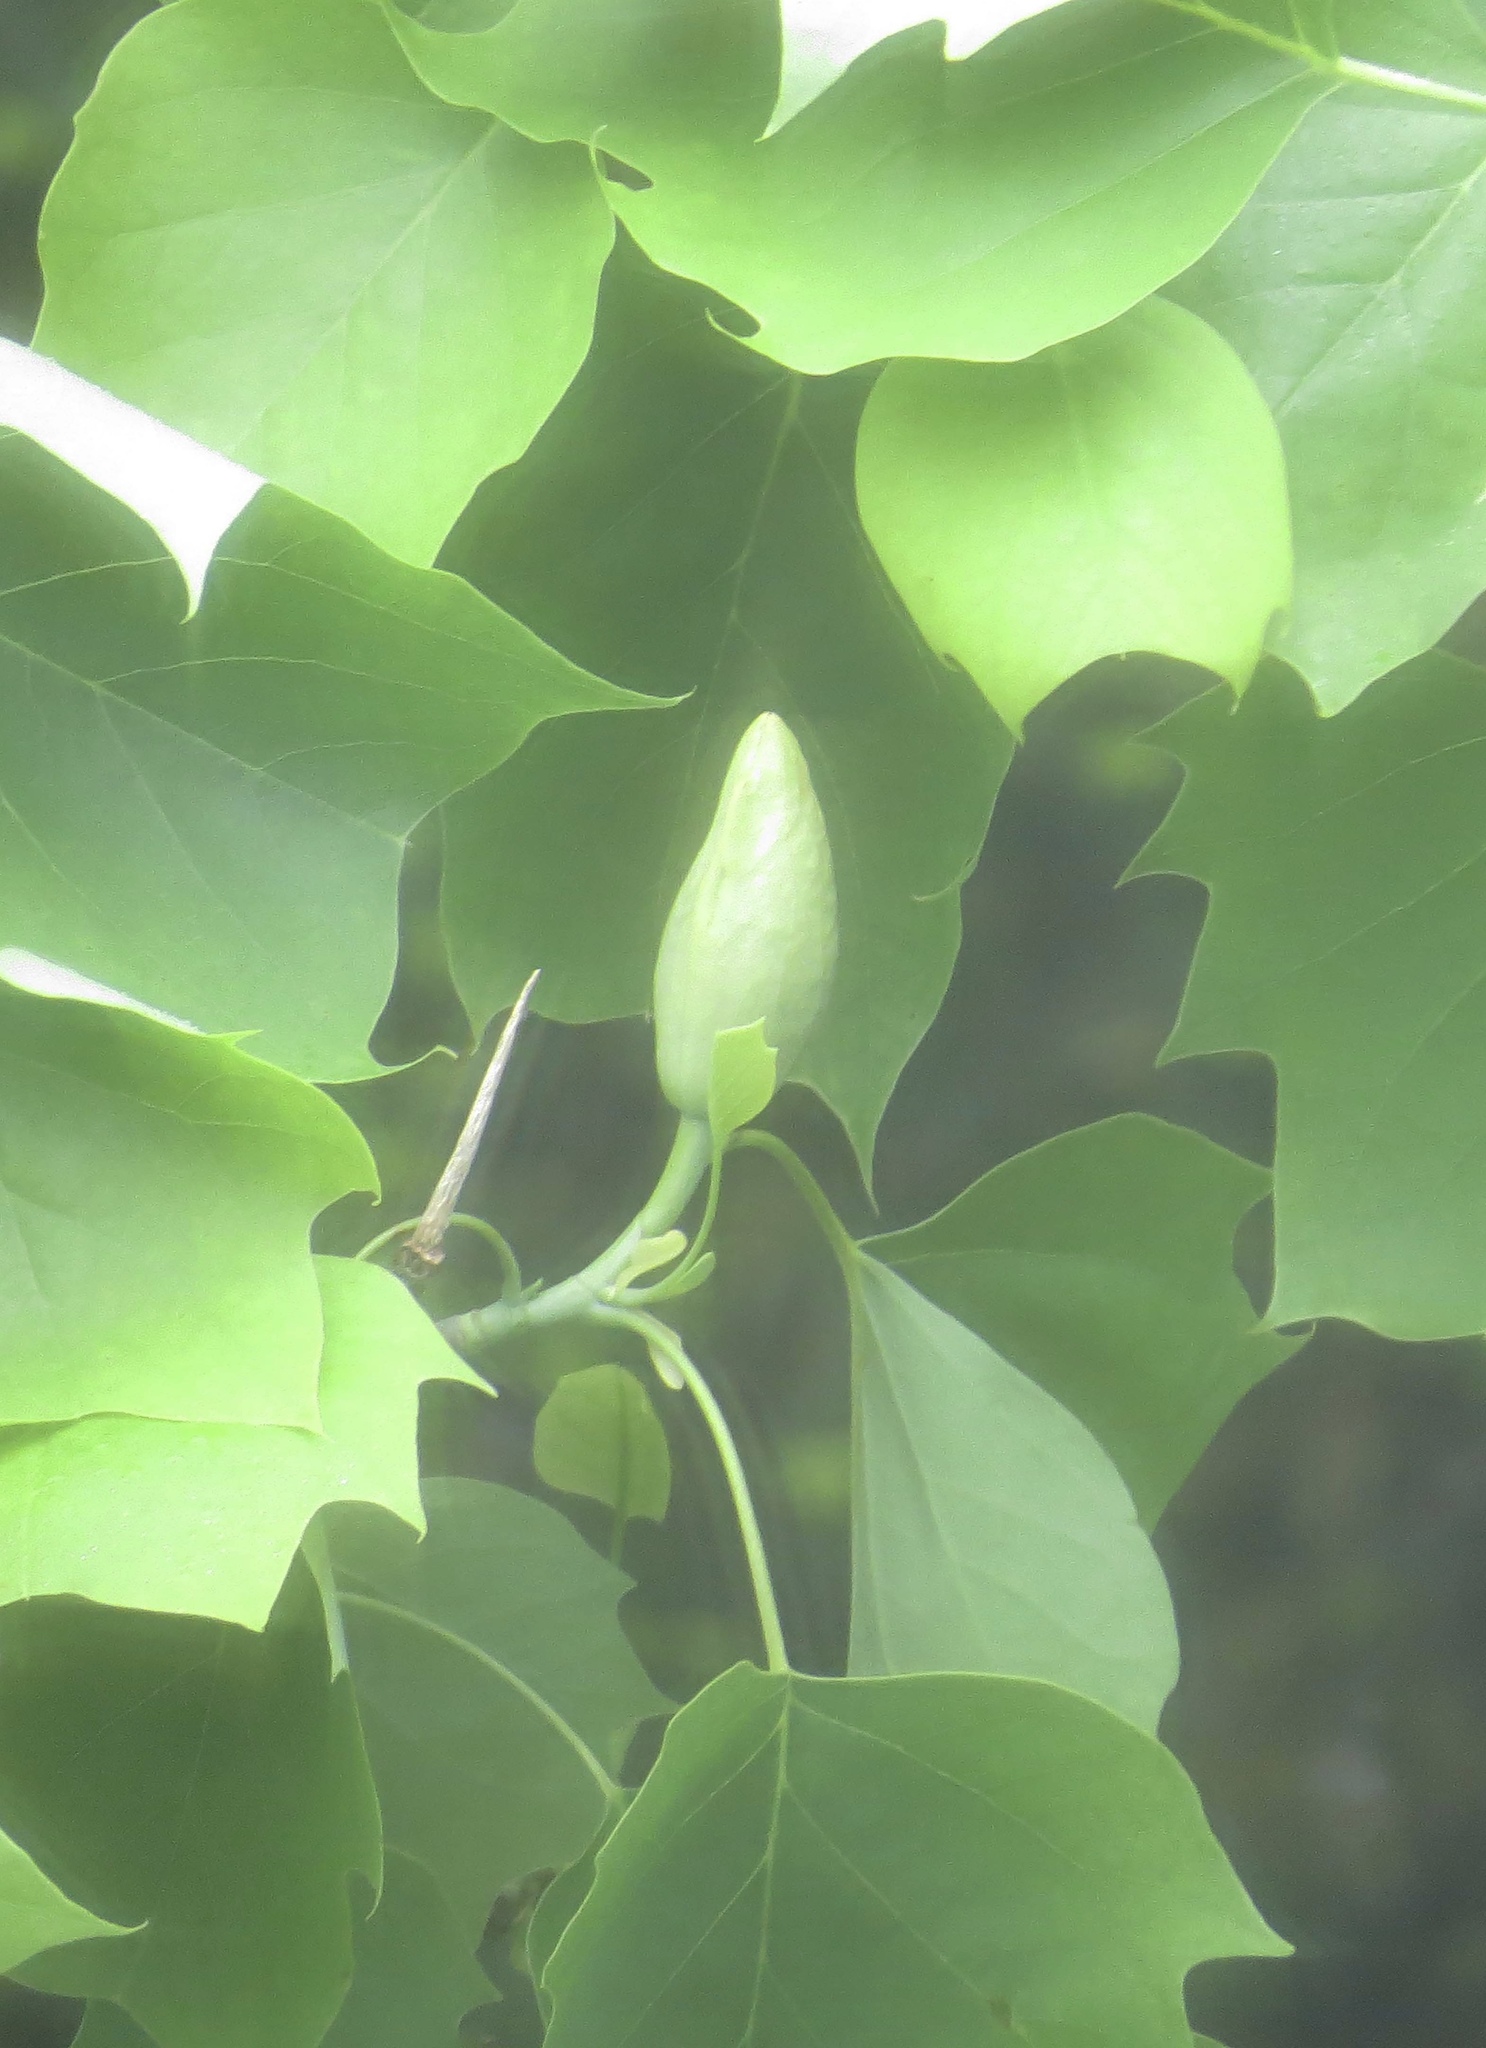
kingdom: Plantae
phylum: Tracheophyta
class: Magnoliopsida
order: Magnoliales
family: Magnoliaceae
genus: Liriodendron
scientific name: Liriodendron tulipifera
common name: Tulip tree
